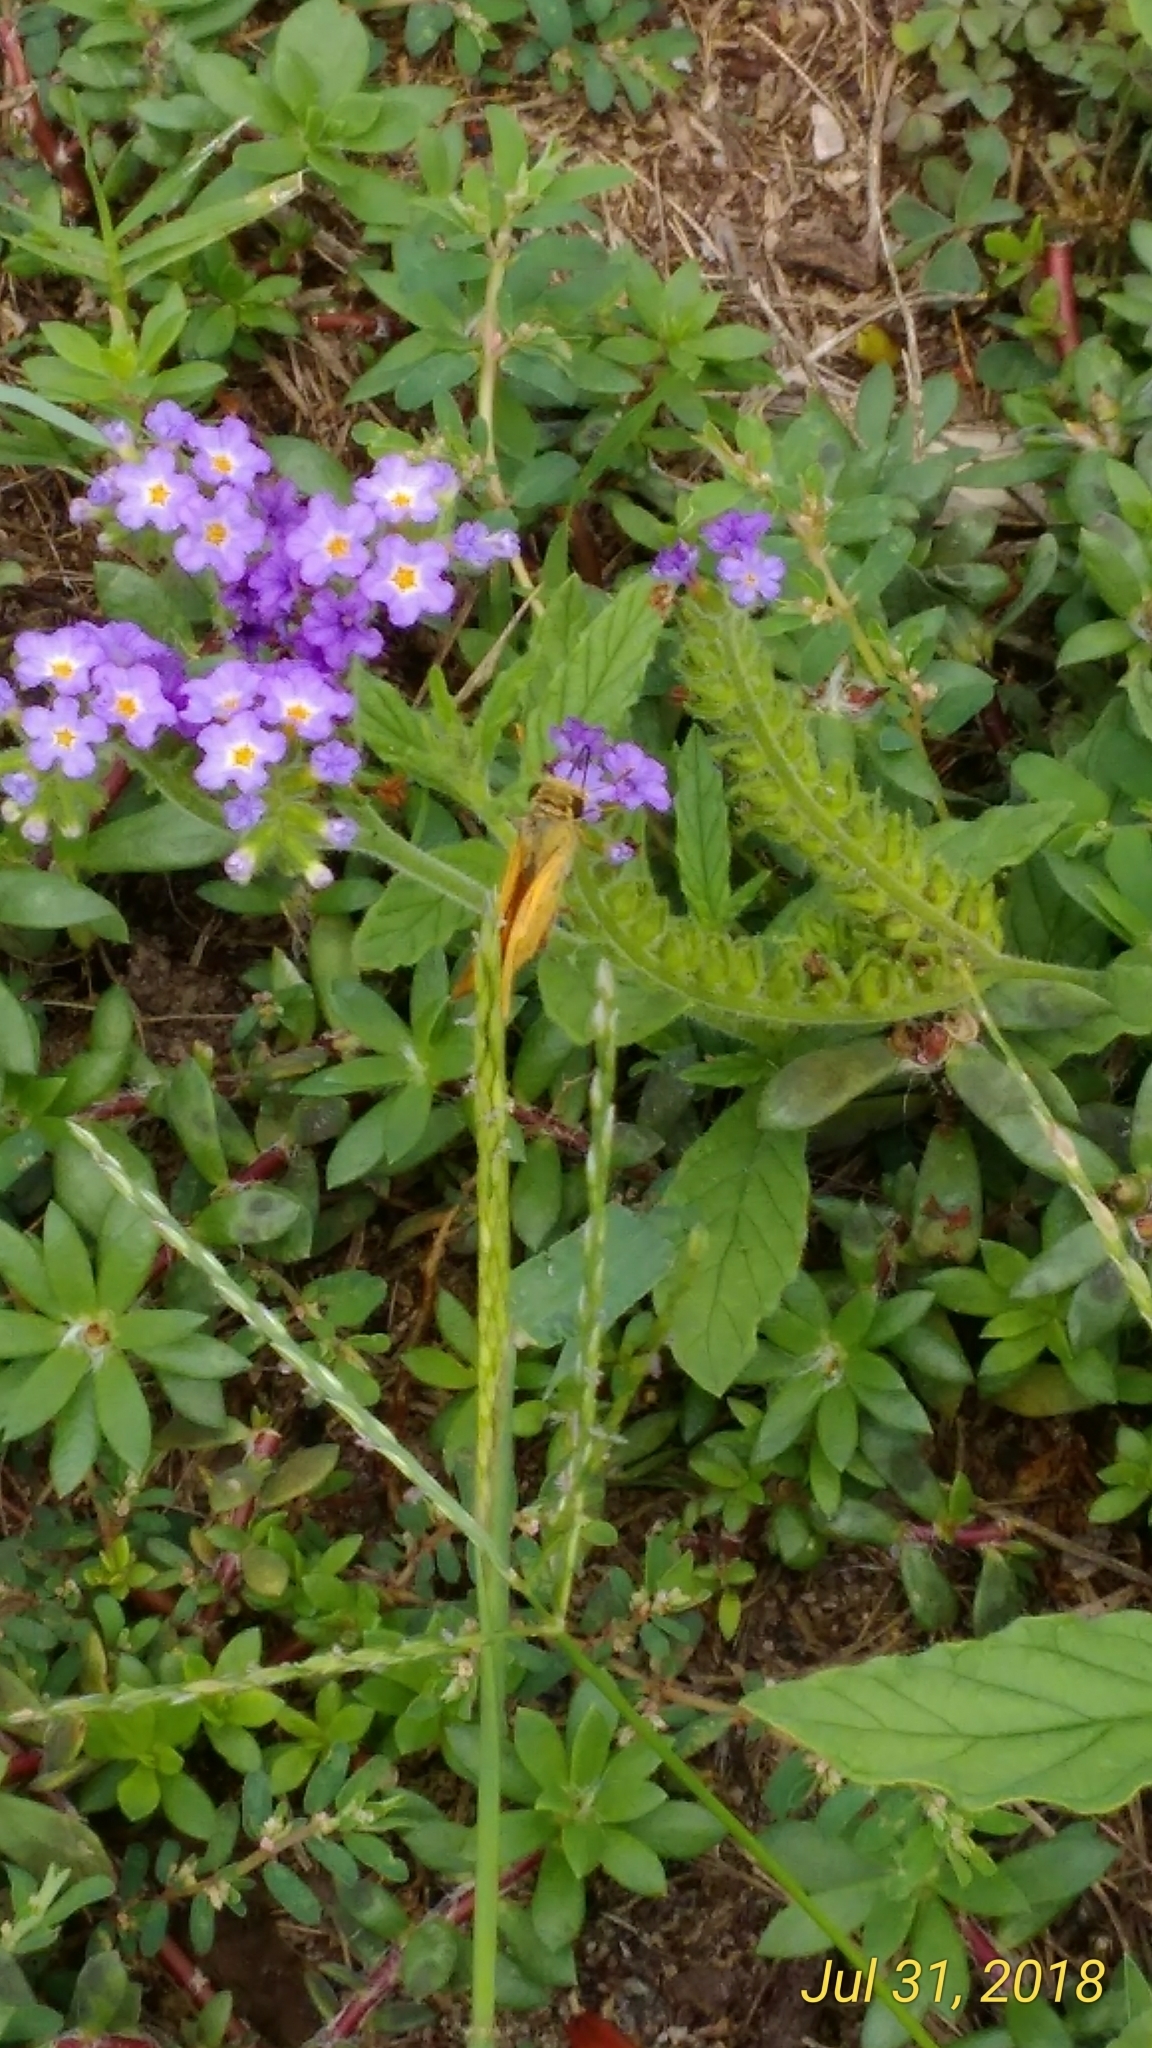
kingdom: Animalia
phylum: Arthropoda
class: Insecta
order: Lepidoptera
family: Hesperiidae
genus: Hylephila
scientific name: Hylephila phyleus
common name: Fiery skipper
